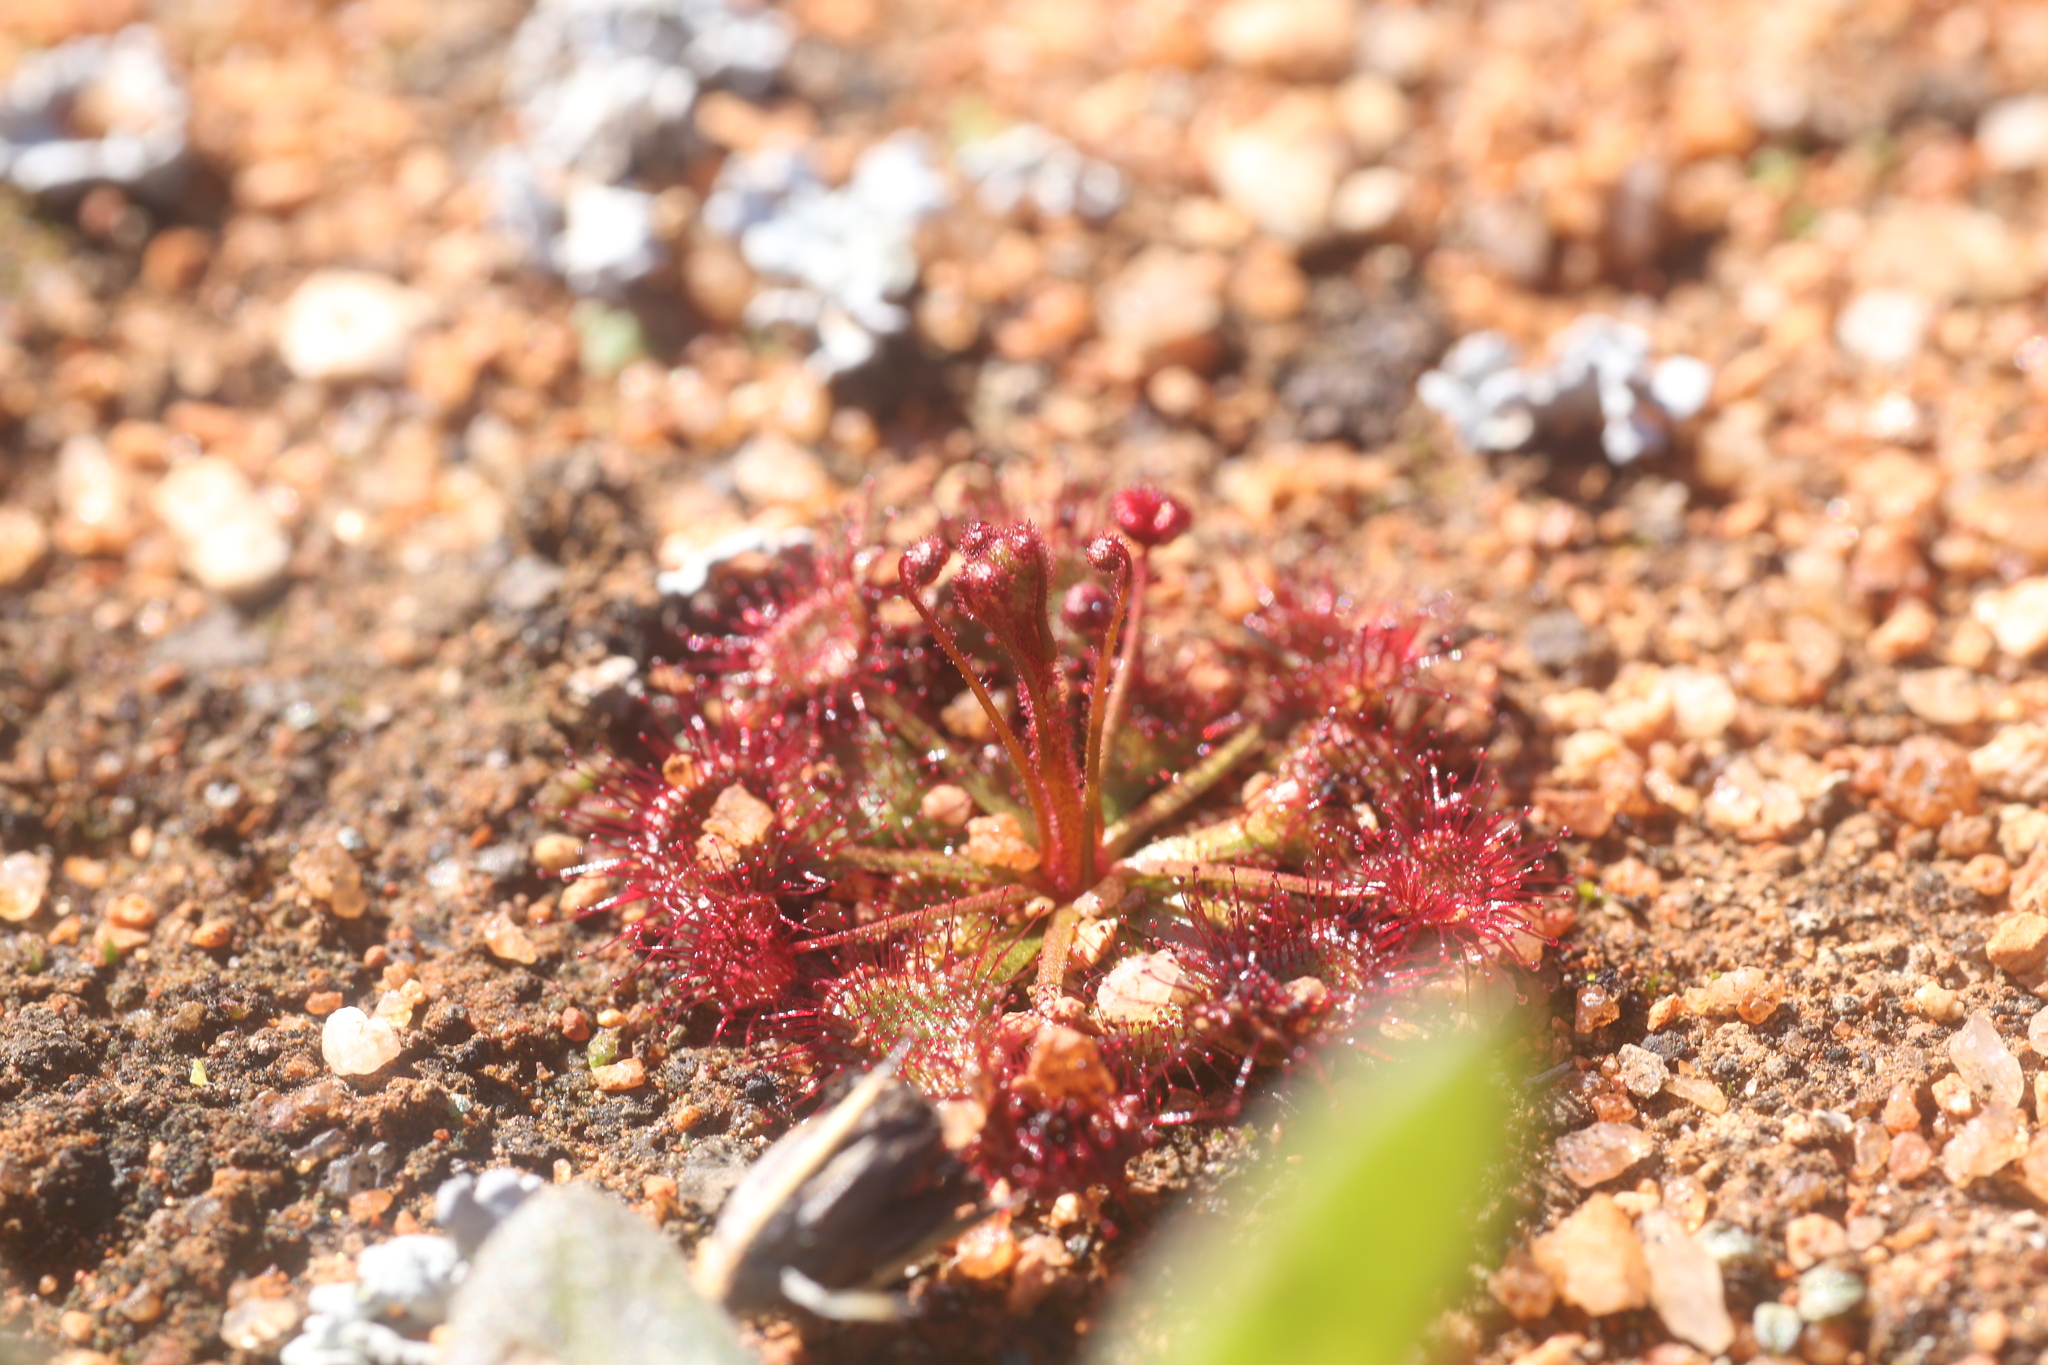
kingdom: Plantae
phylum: Tracheophyta
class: Magnoliopsida
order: Caryophyllales
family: Droseraceae
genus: Drosera
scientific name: Drosera andersoniana
